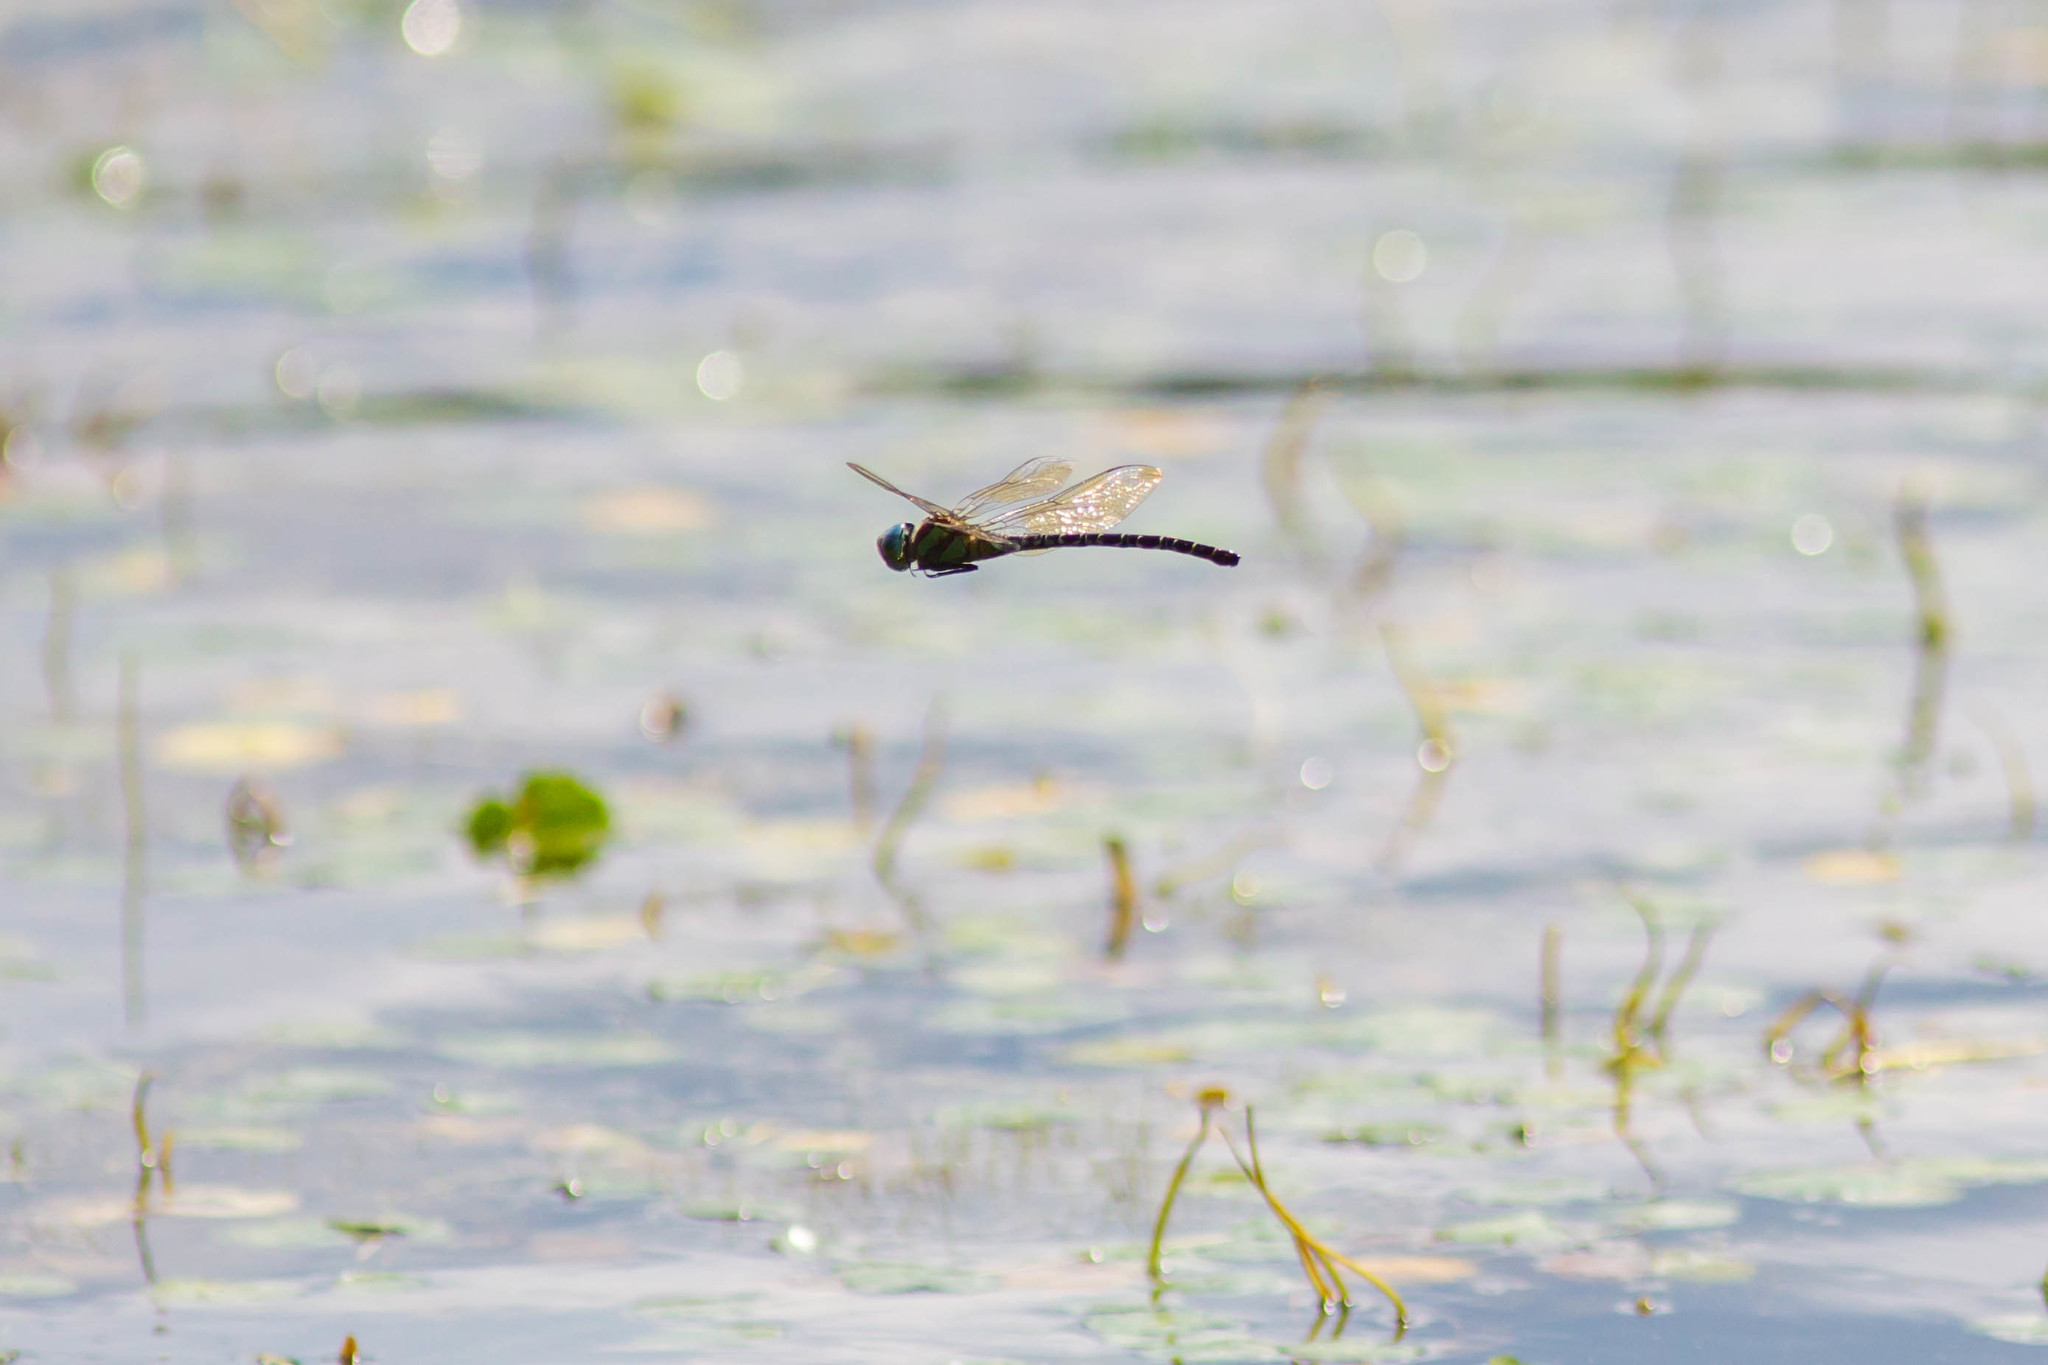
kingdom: Animalia
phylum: Arthropoda
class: Insecta
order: Odonata
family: Aeshnidae
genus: Coryphaeschna
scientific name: Coryphaeschna ingens
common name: Regal darner
